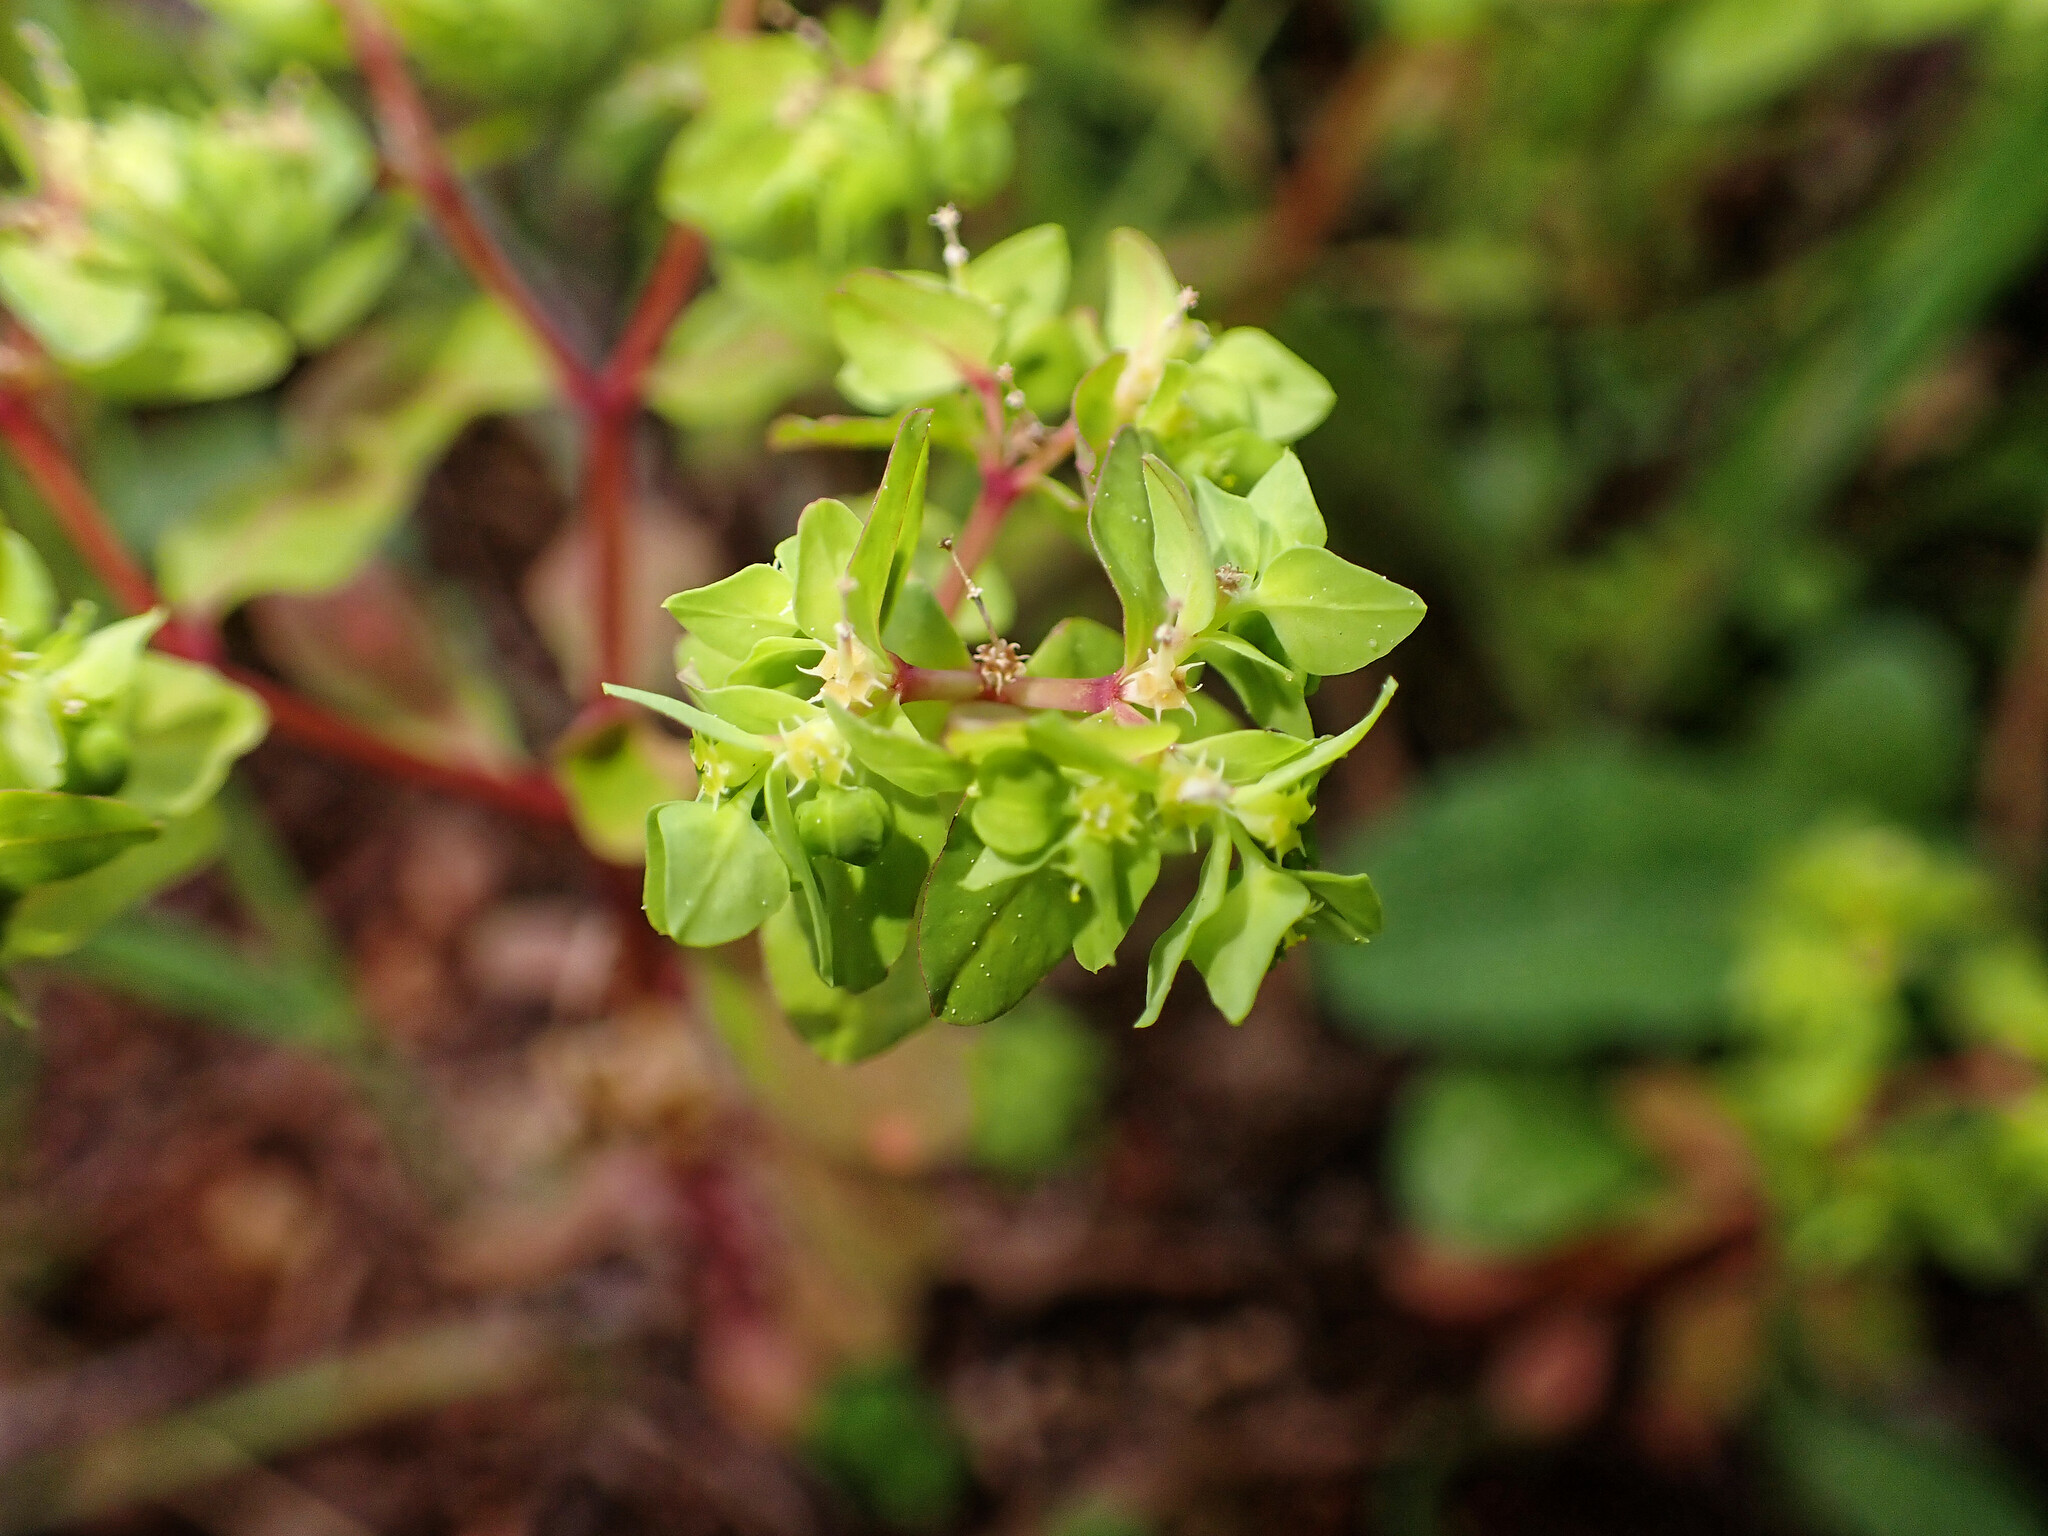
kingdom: Plantae
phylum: Tracheophyta
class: Magnoliopsida
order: Malpighiales
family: Euphorbiaceae
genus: Euphorbia
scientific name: Euphorbia peplus
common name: Petty spurge
